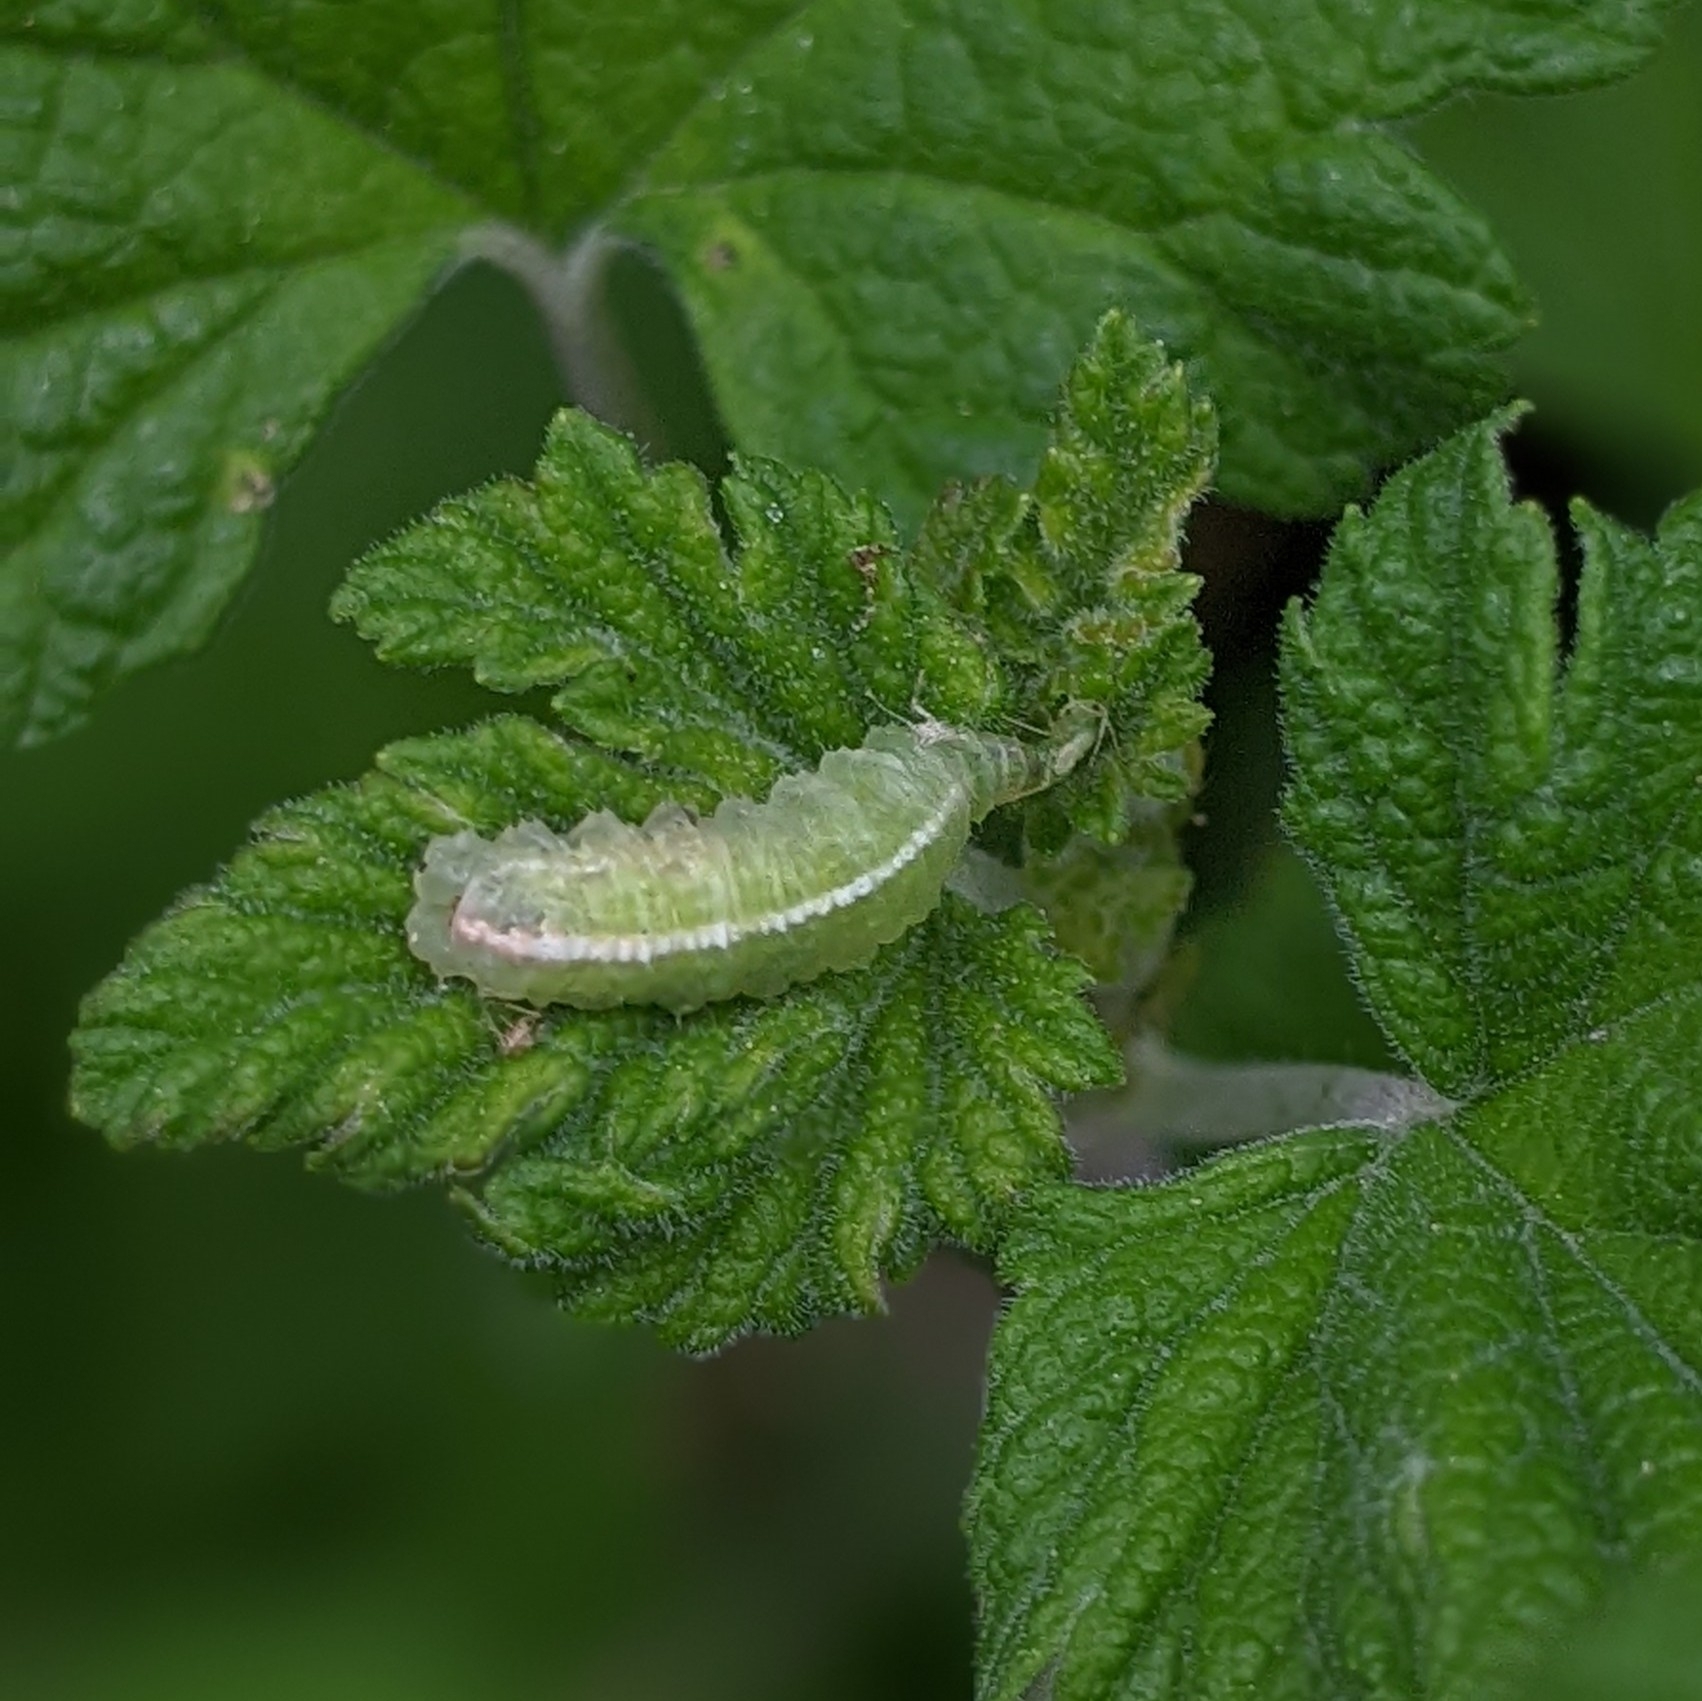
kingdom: Animalia
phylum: Arthropoda
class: Insecta
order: Diptera
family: Syrphidae
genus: Scaeva
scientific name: Scaeva affinis
